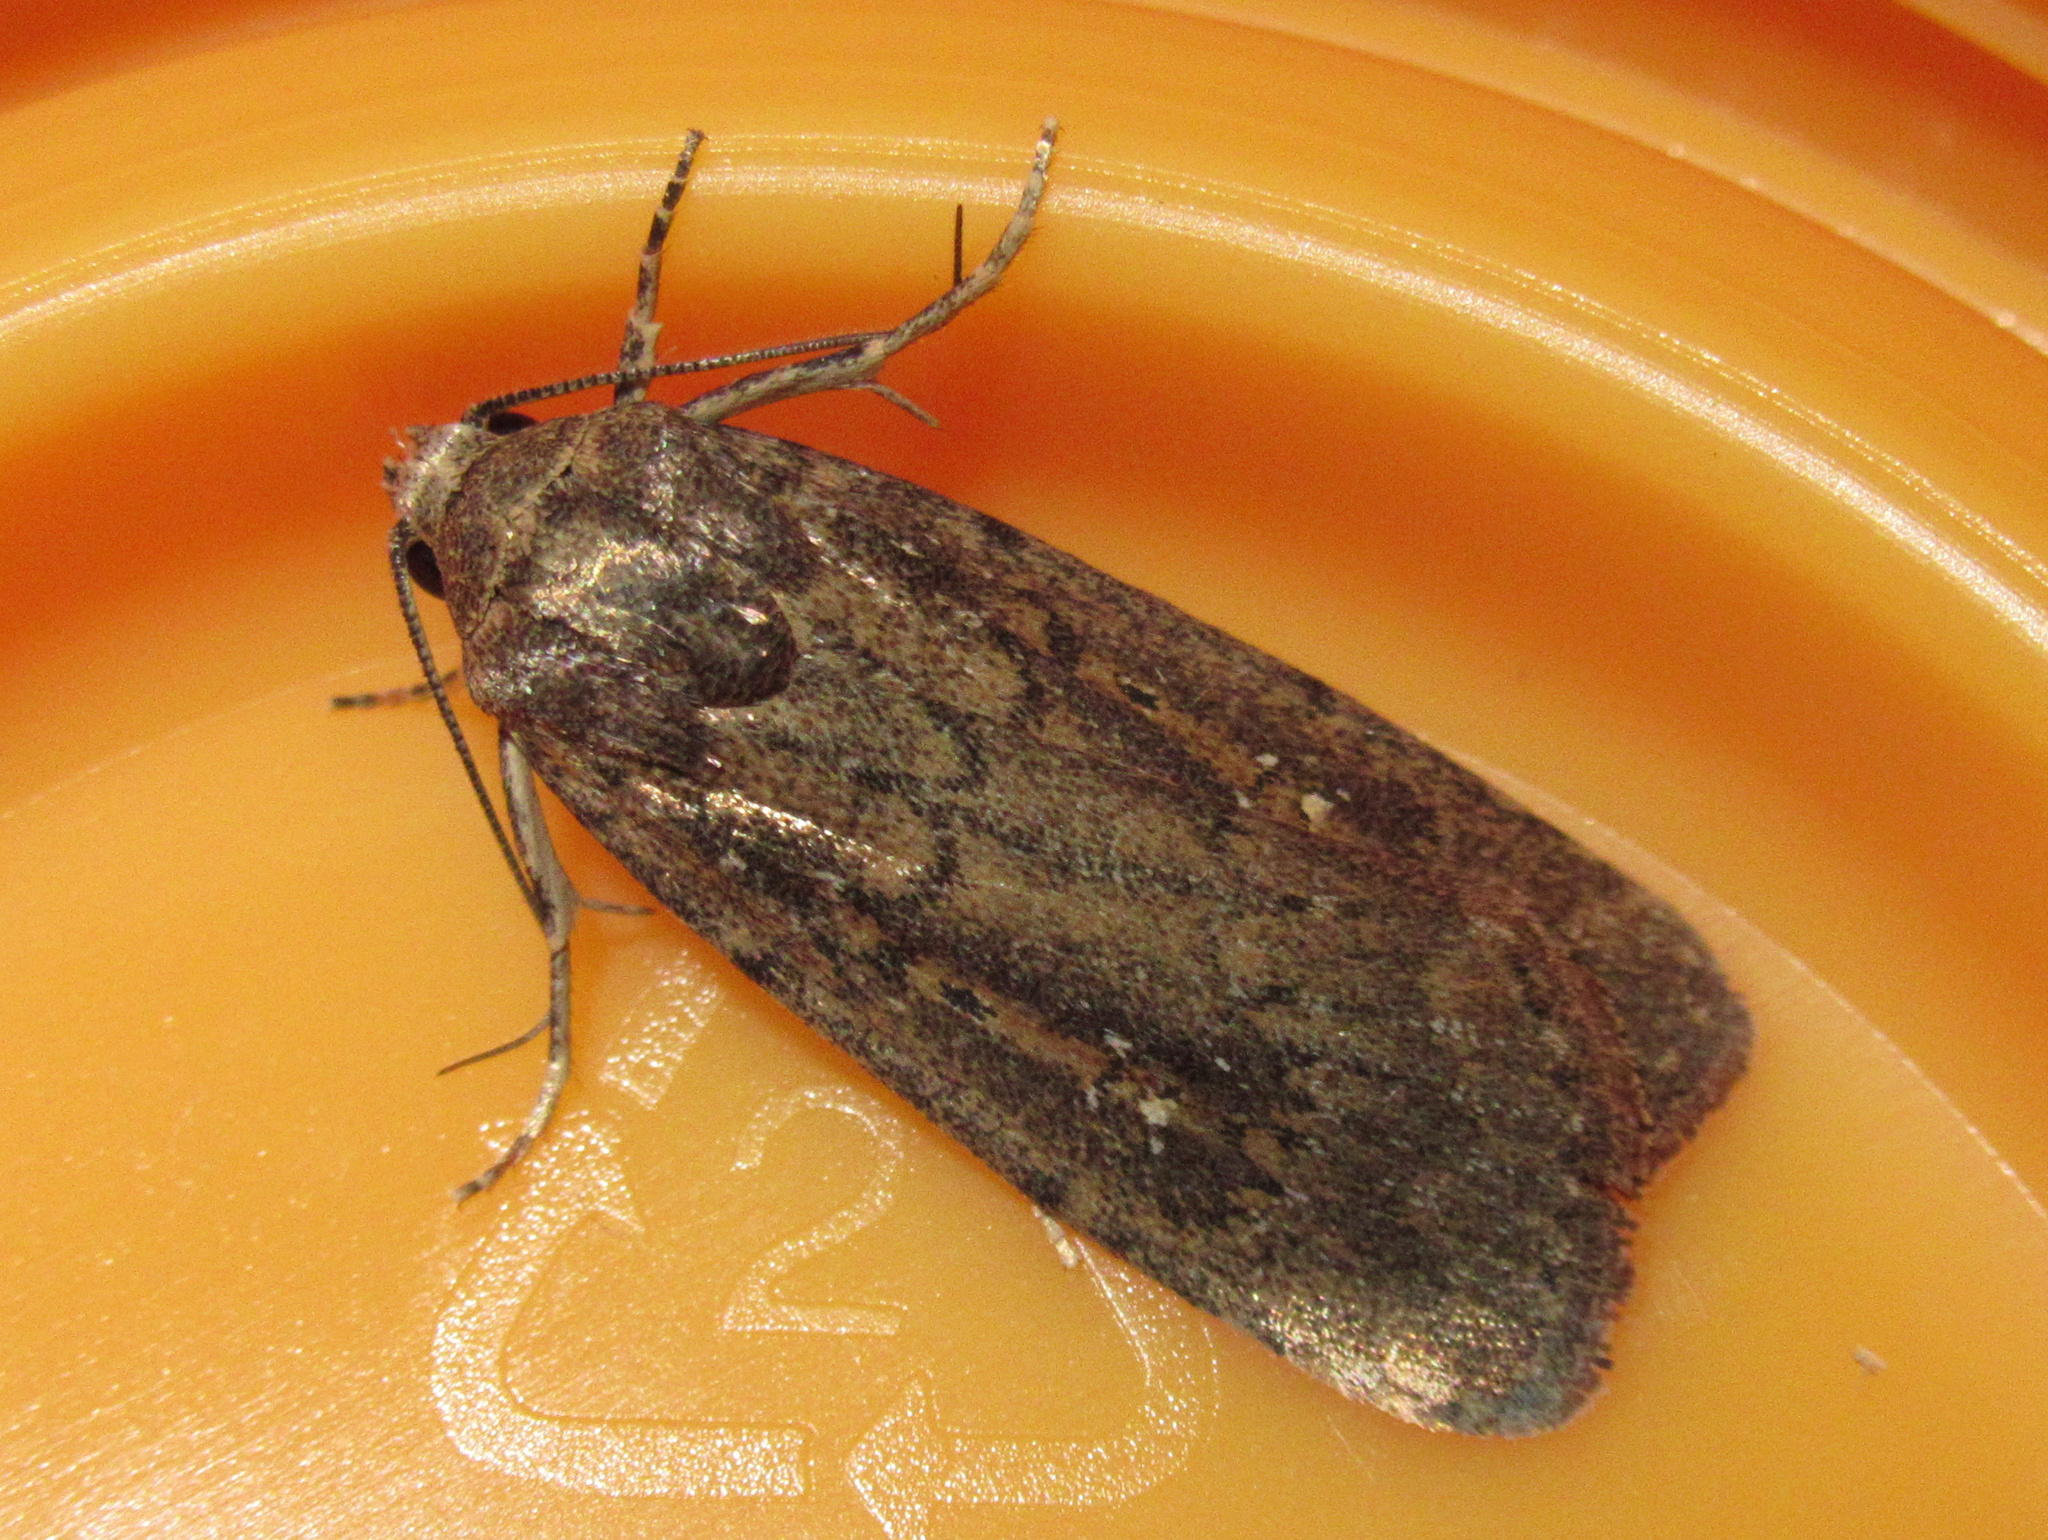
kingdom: Animalia
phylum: Arthropoda
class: Insecta
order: Lepidoptera
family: Noctuidae
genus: Athetis
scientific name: Athetis tenuis
